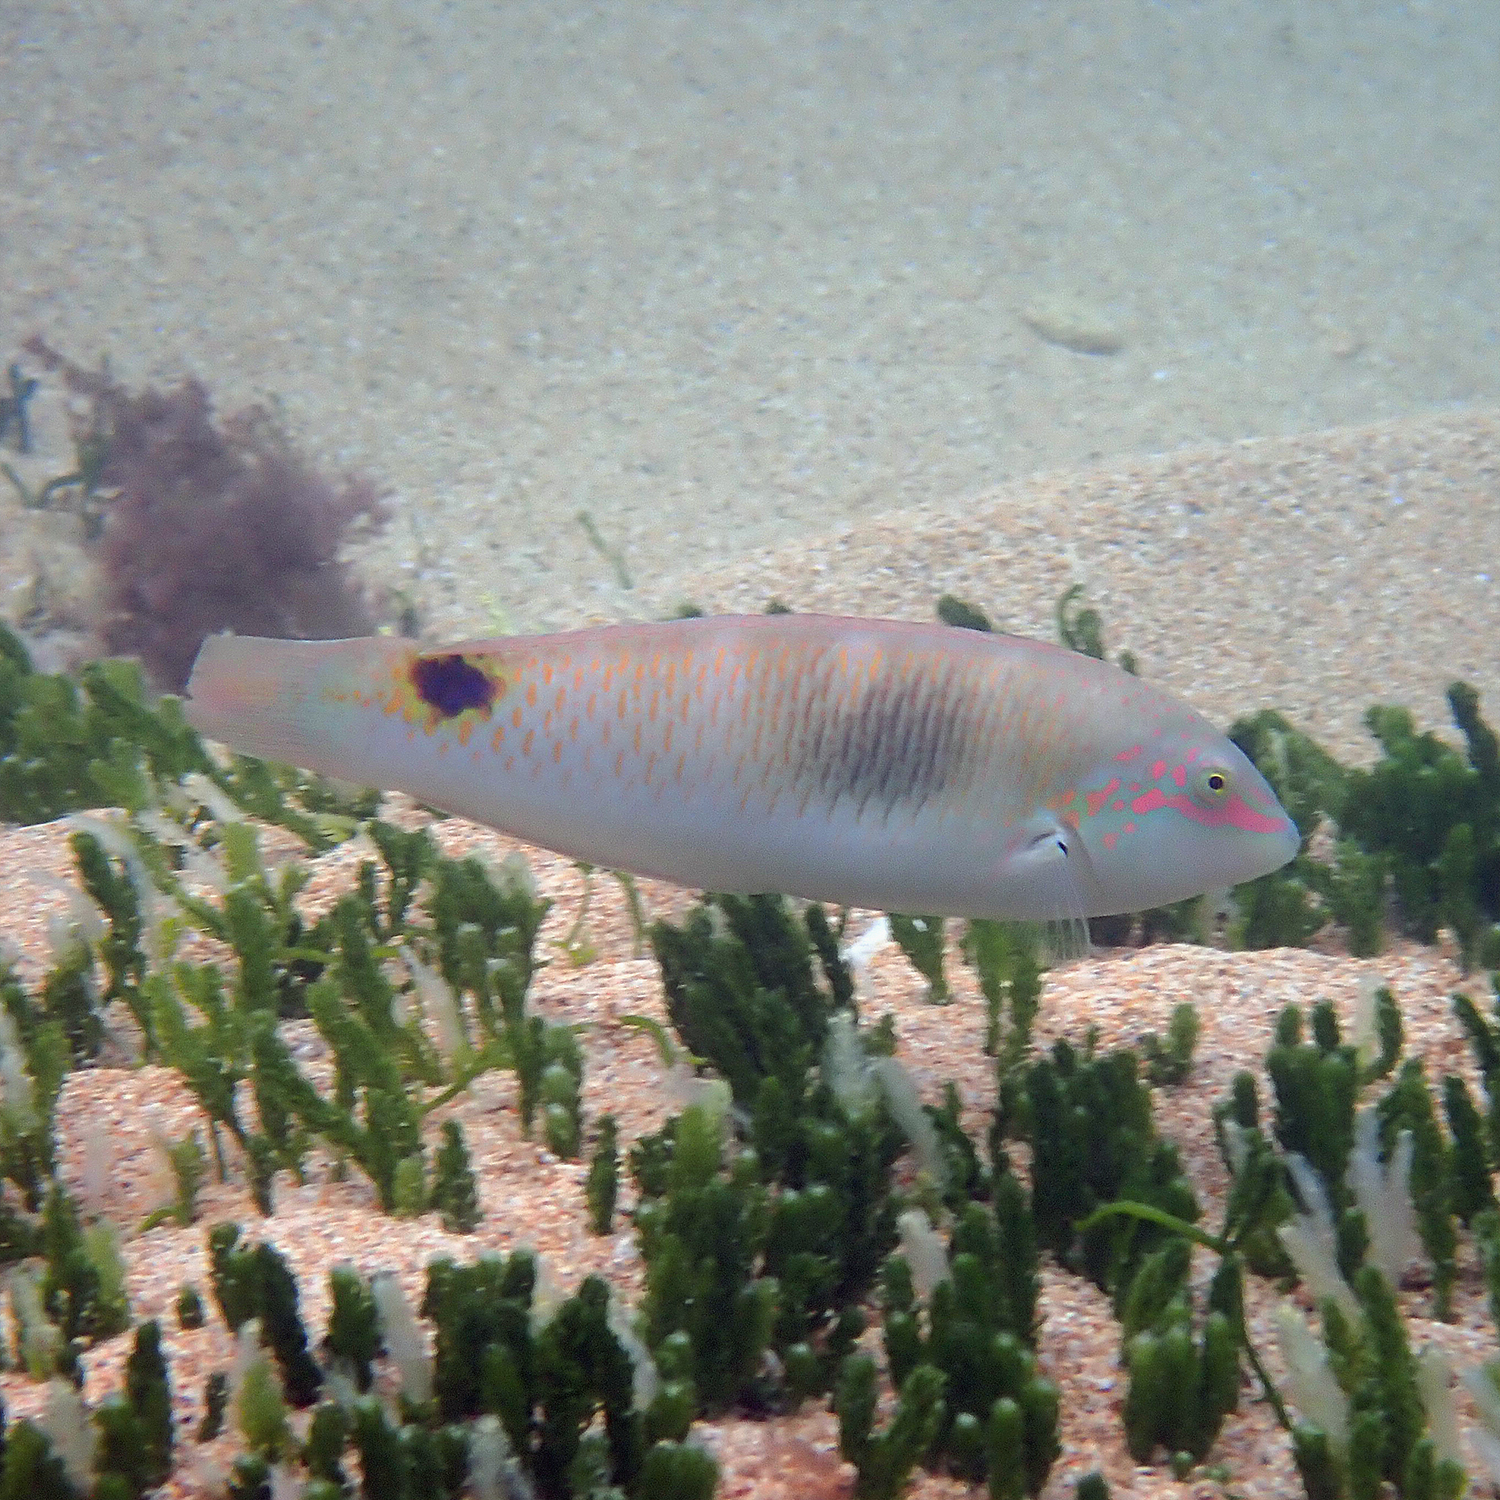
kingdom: Animalia
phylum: Chordata
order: Perciformes
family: Labridae
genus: Halichoeres
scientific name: Halichoeres trimaculatus
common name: Three-spot wrasse
